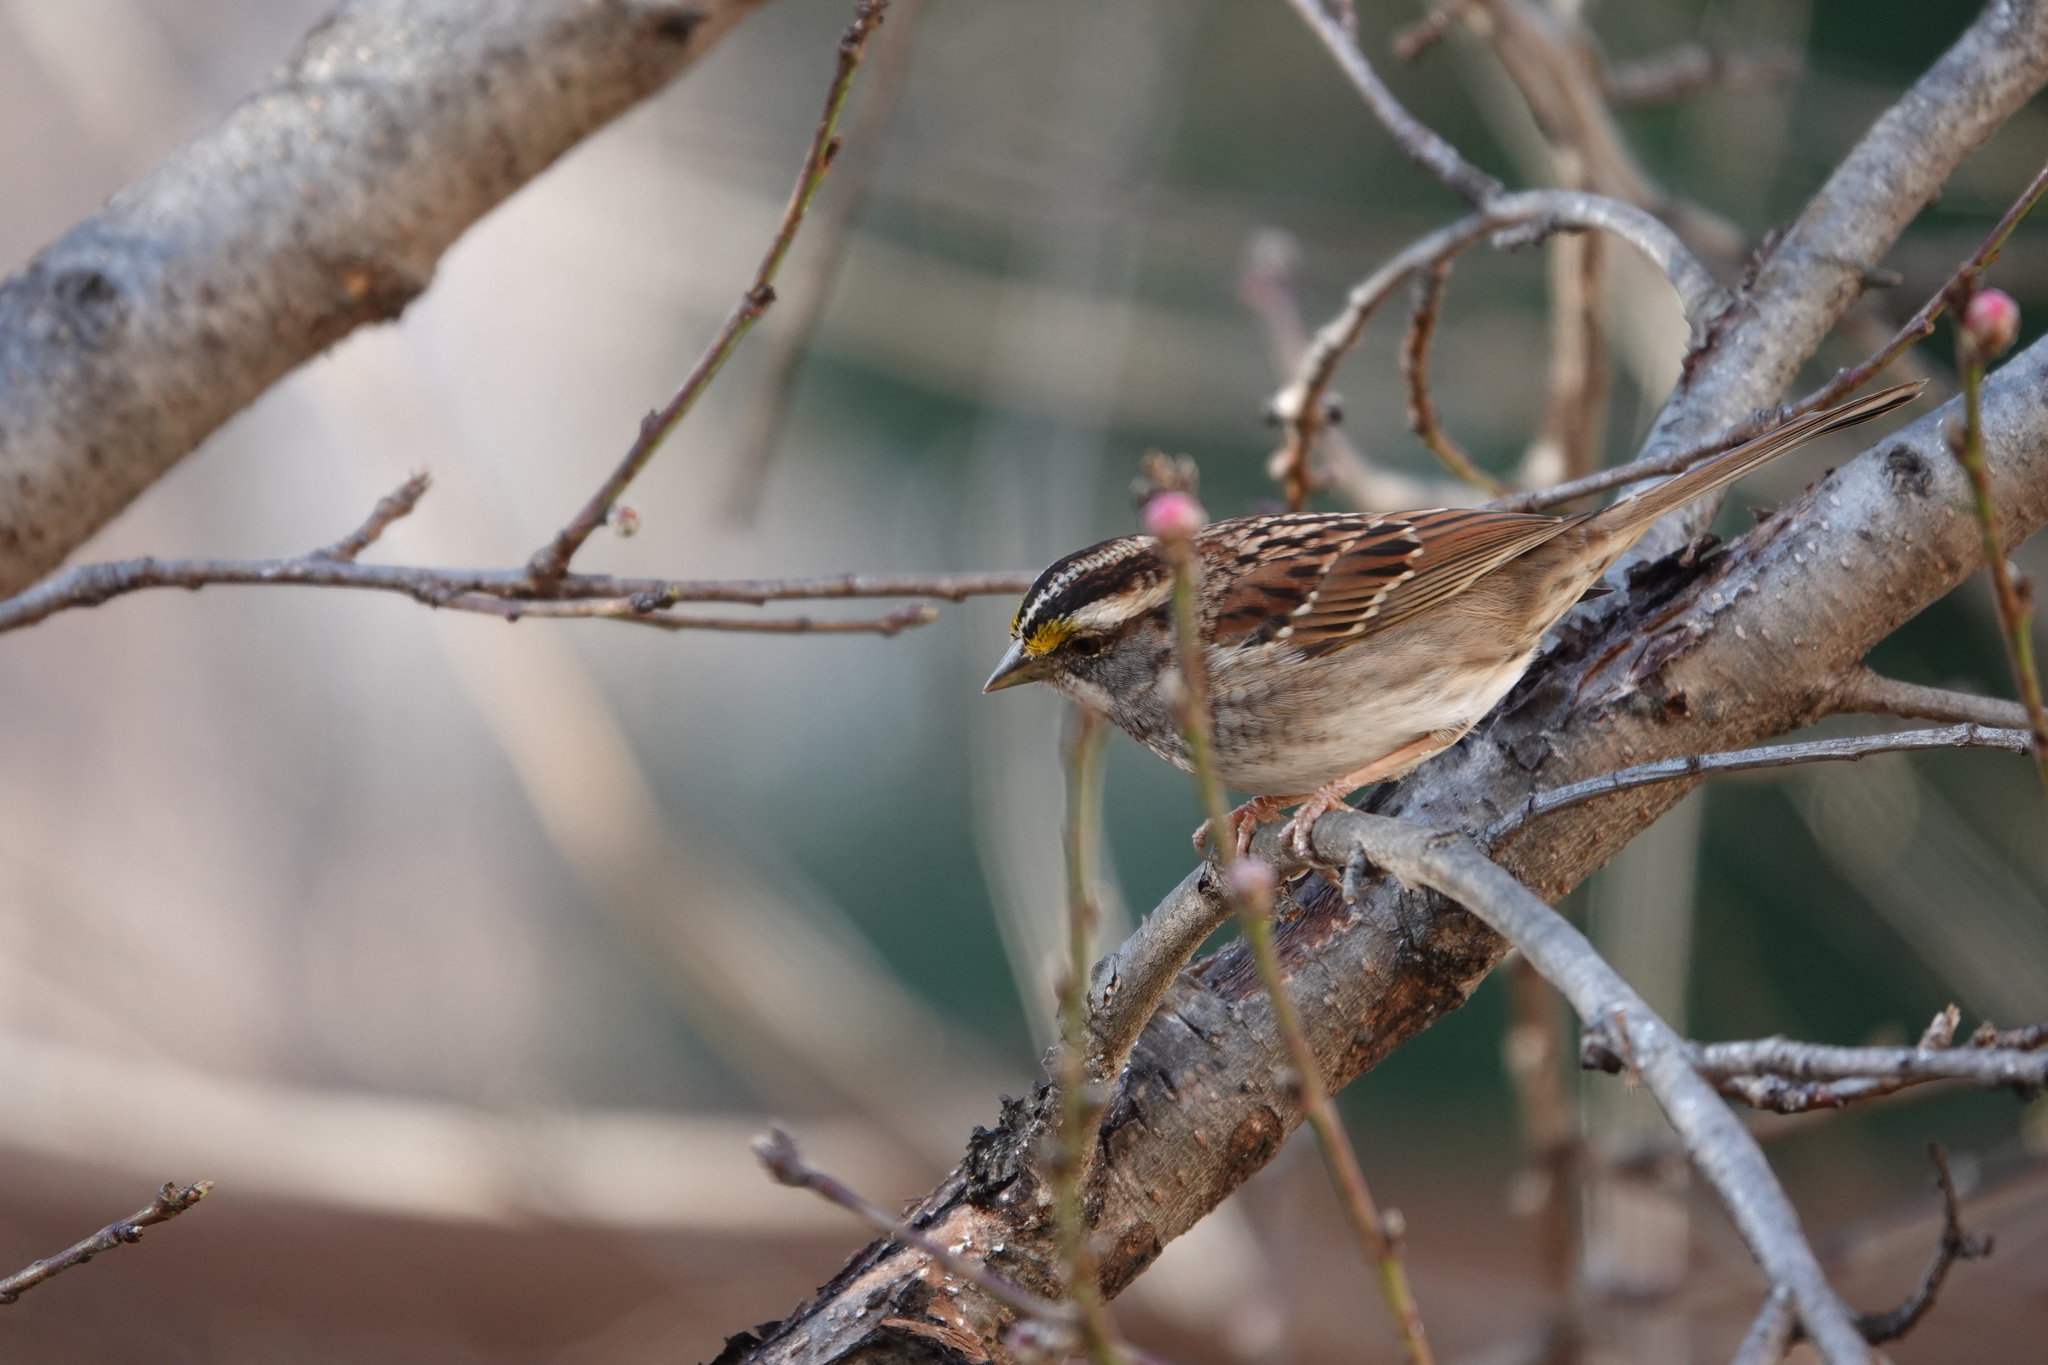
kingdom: Animalia
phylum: Chordata
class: Aves
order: Passeriformes
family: Passerellidae
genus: Zonotrichia
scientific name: Zonotrichia albicollis
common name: White-throated sparrow
